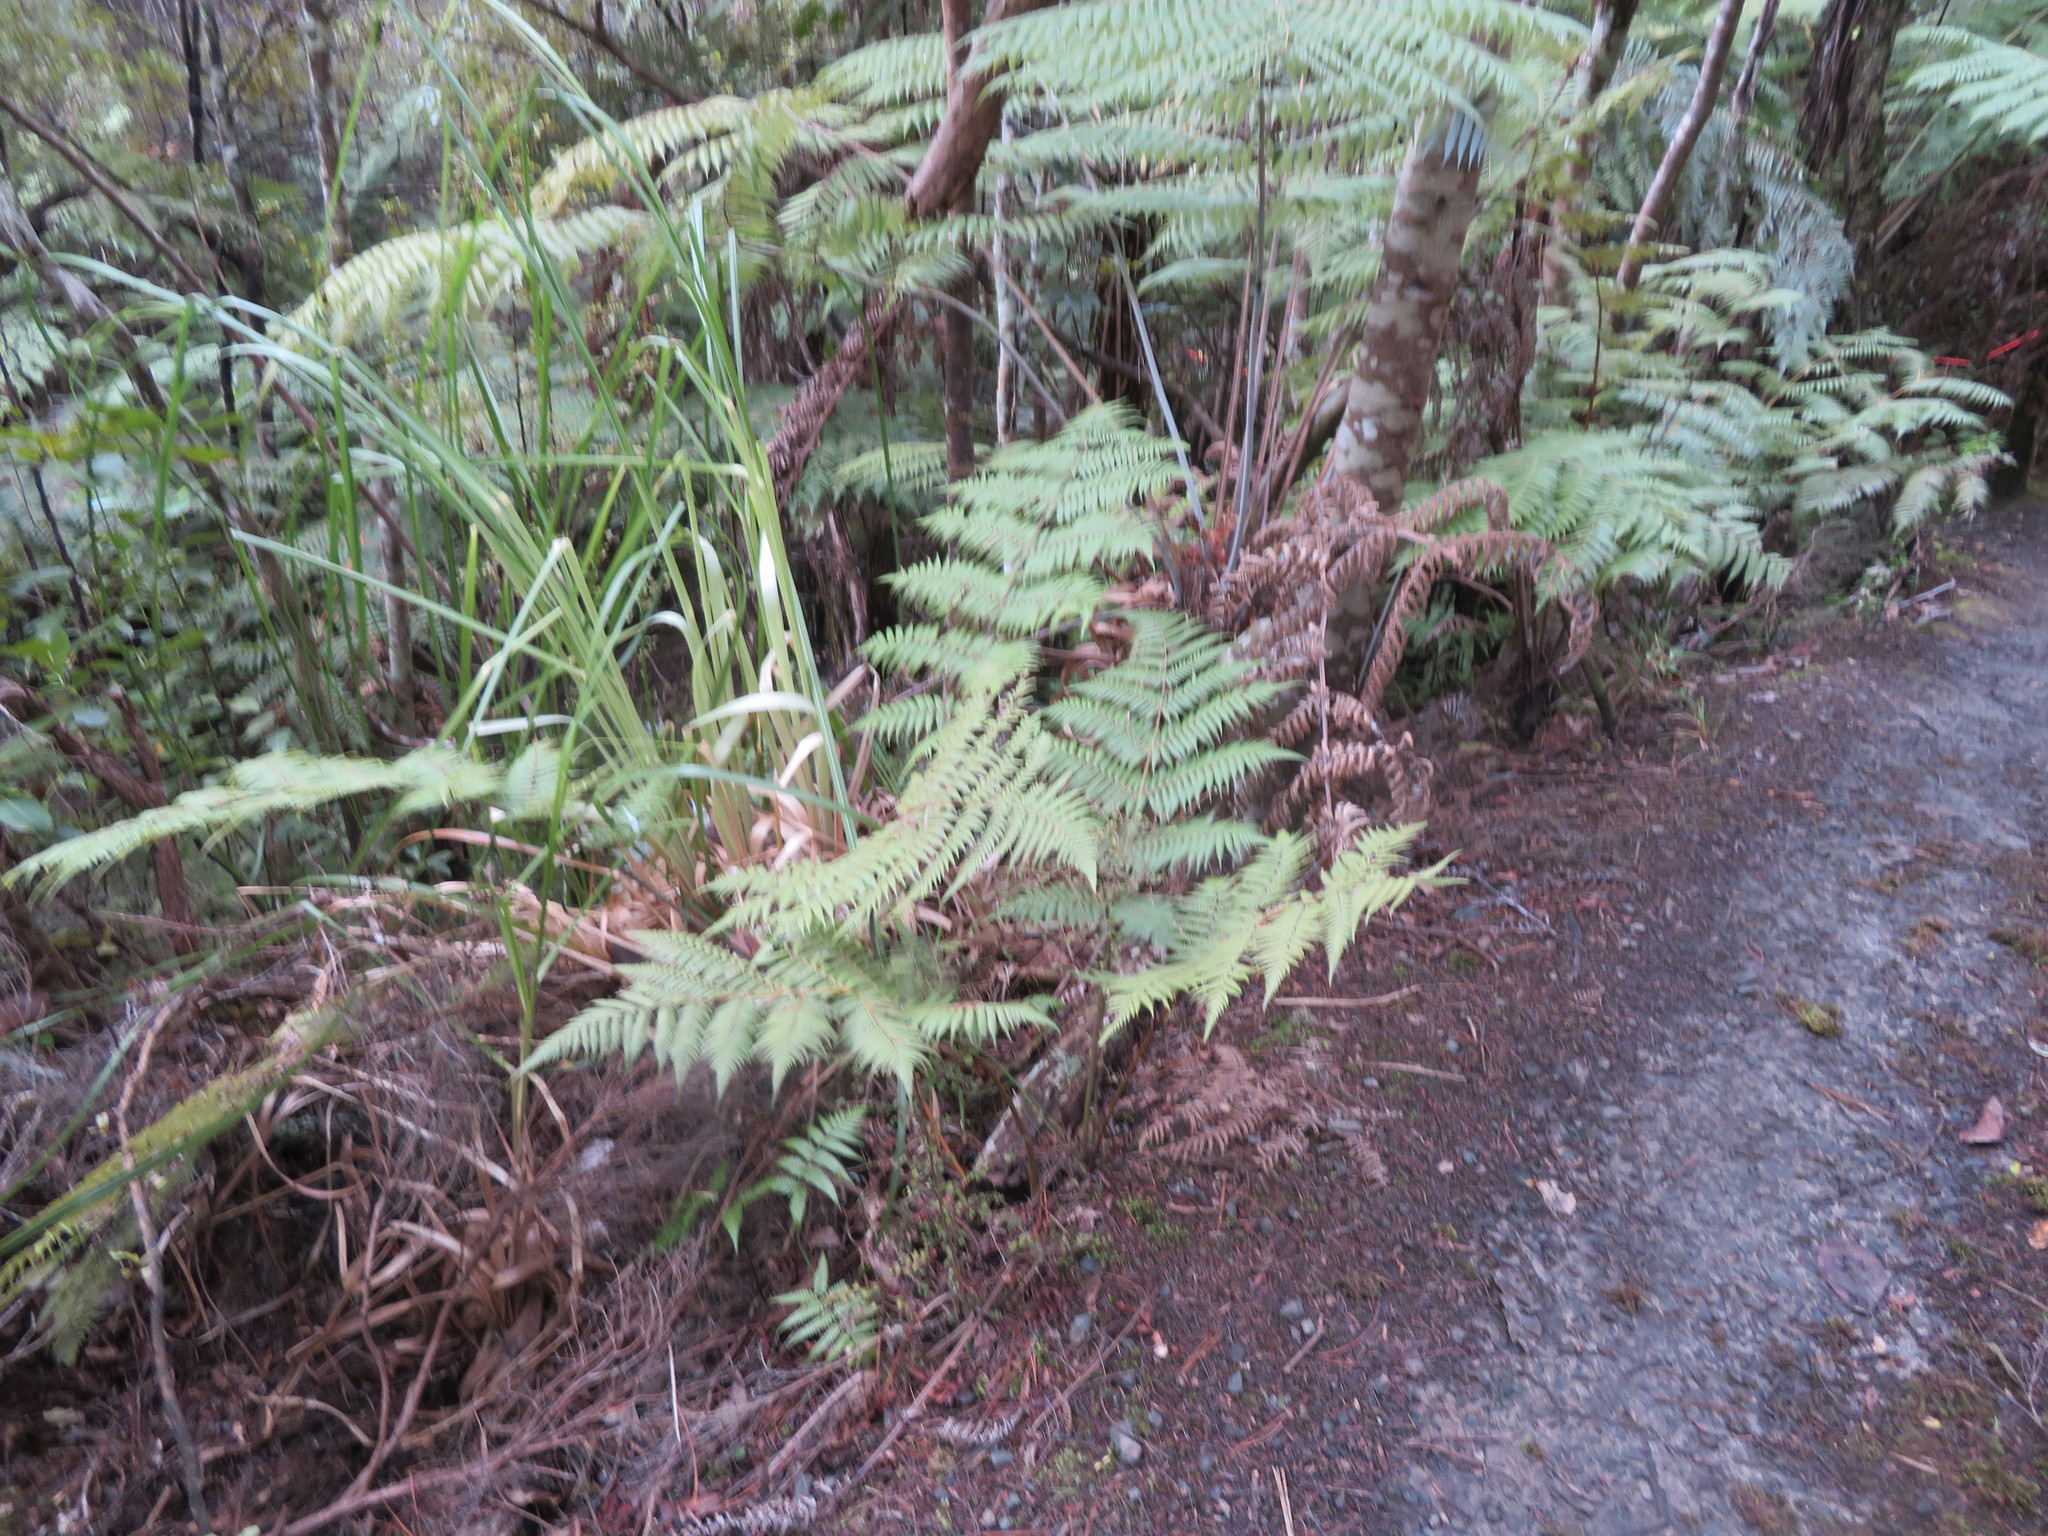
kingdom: Plantae
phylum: Tracheophyta
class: Liliopsida
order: Poales
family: Poaceae
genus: Cortaderia
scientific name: Cortaderia selloana
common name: Uruguayan pampas grass
